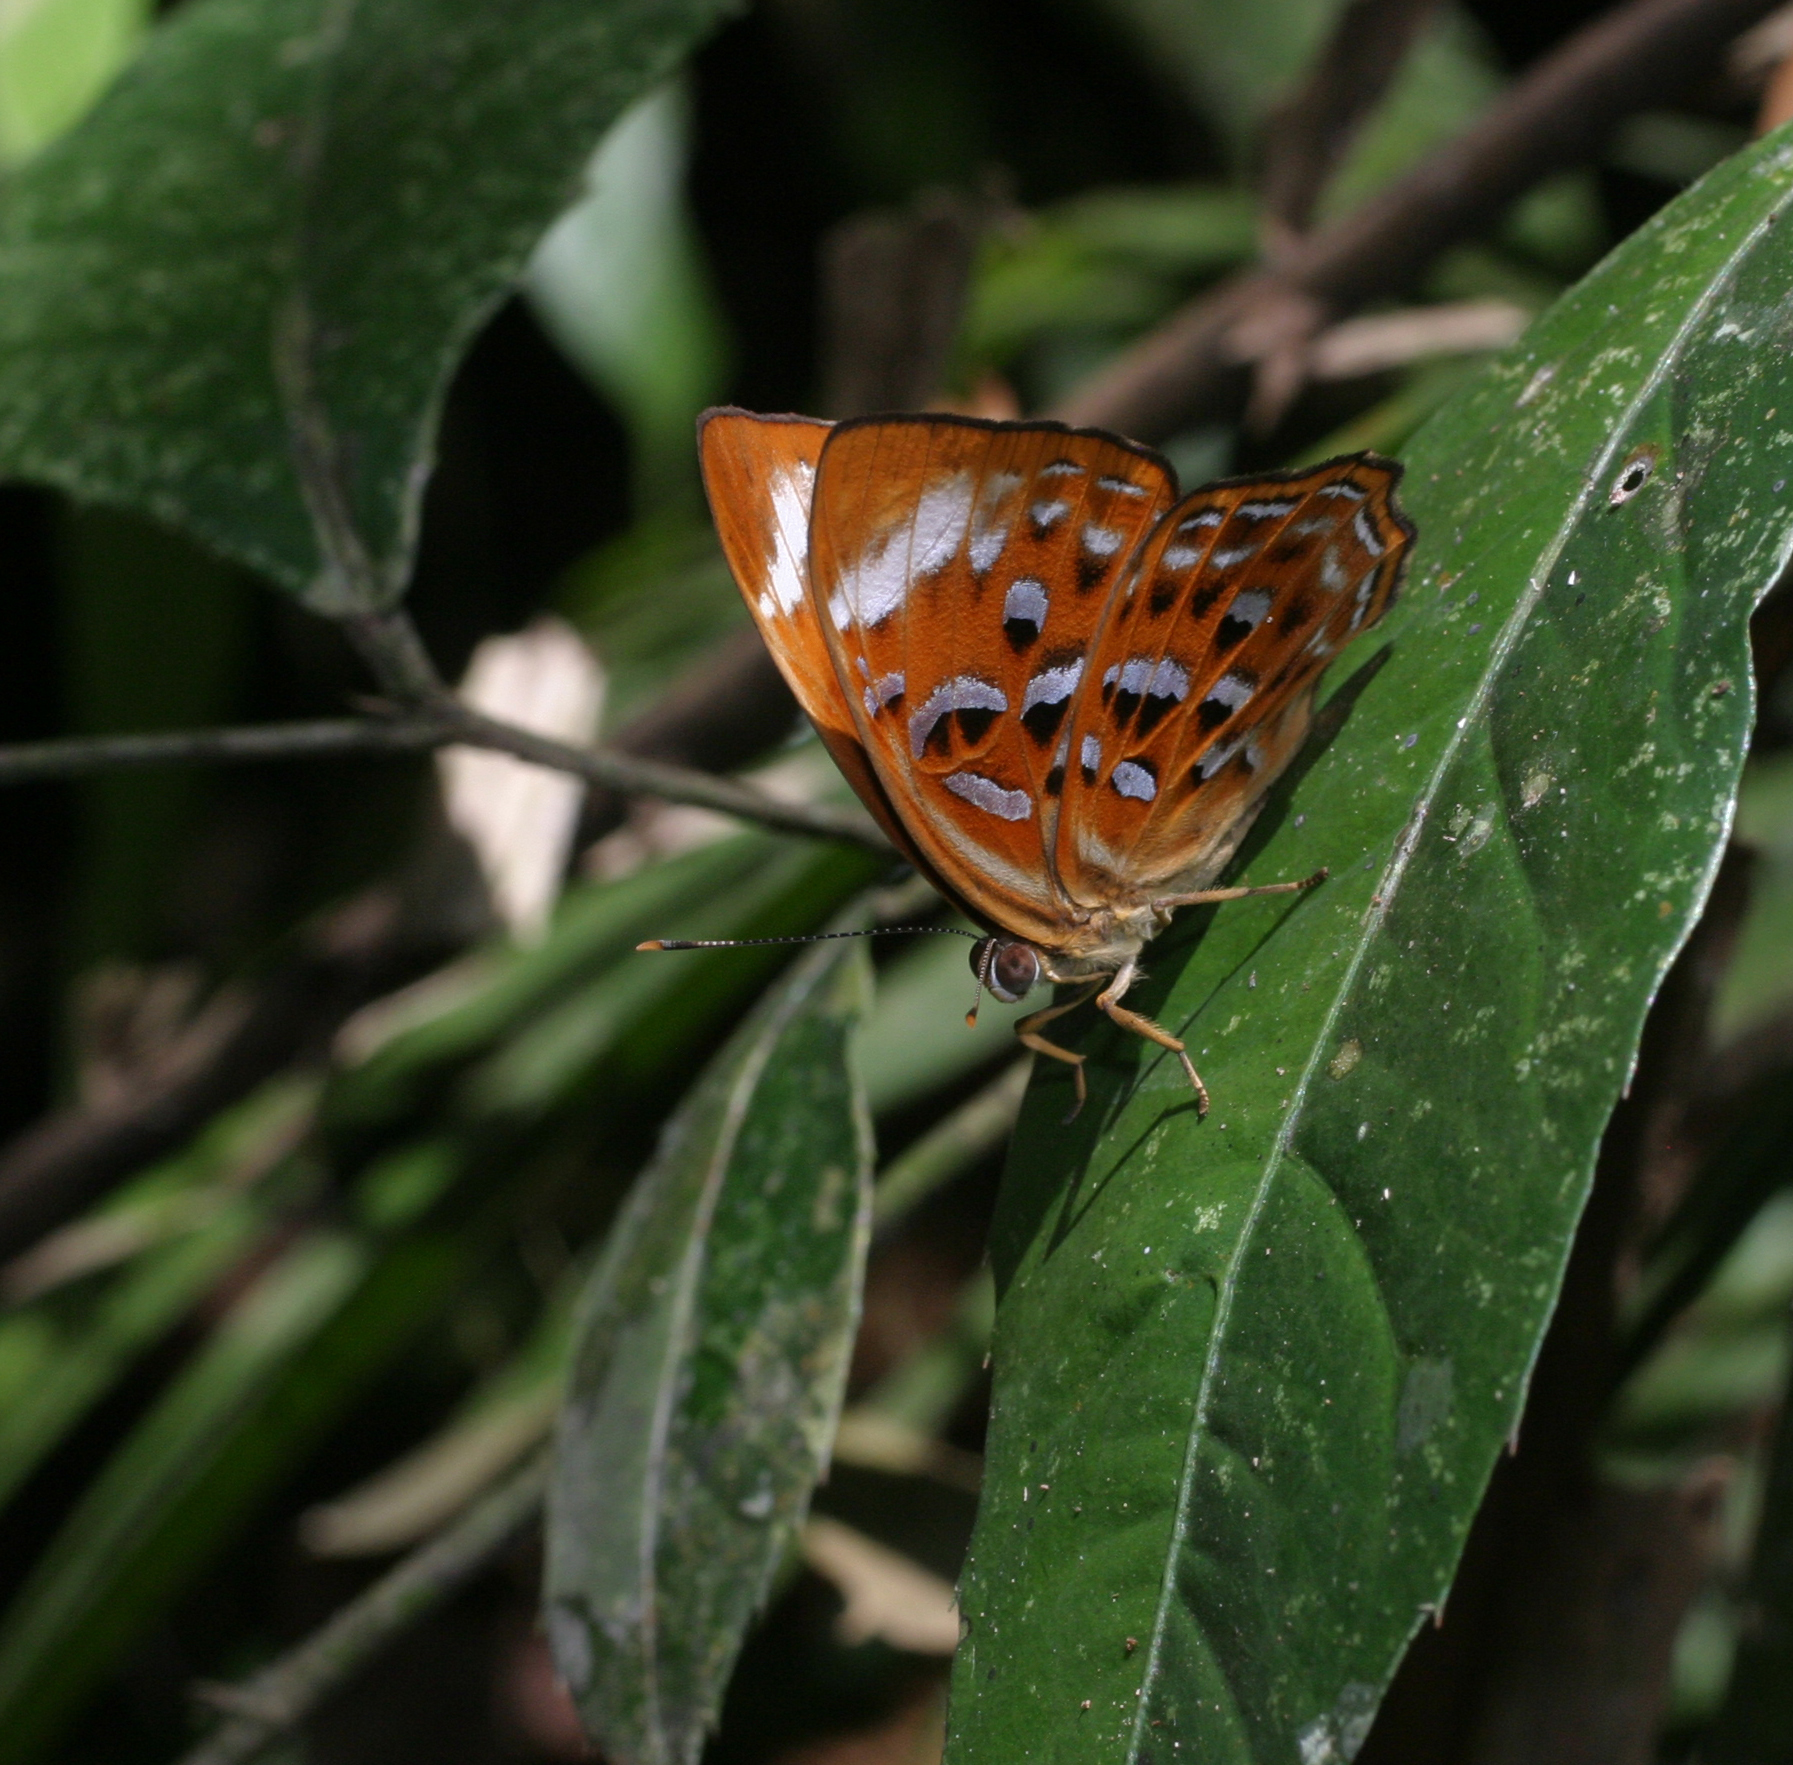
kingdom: Animalia
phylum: Arthropoda
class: Insecta
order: Lepidoptera
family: Erebidae
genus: Dysschema
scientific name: Dysschema
